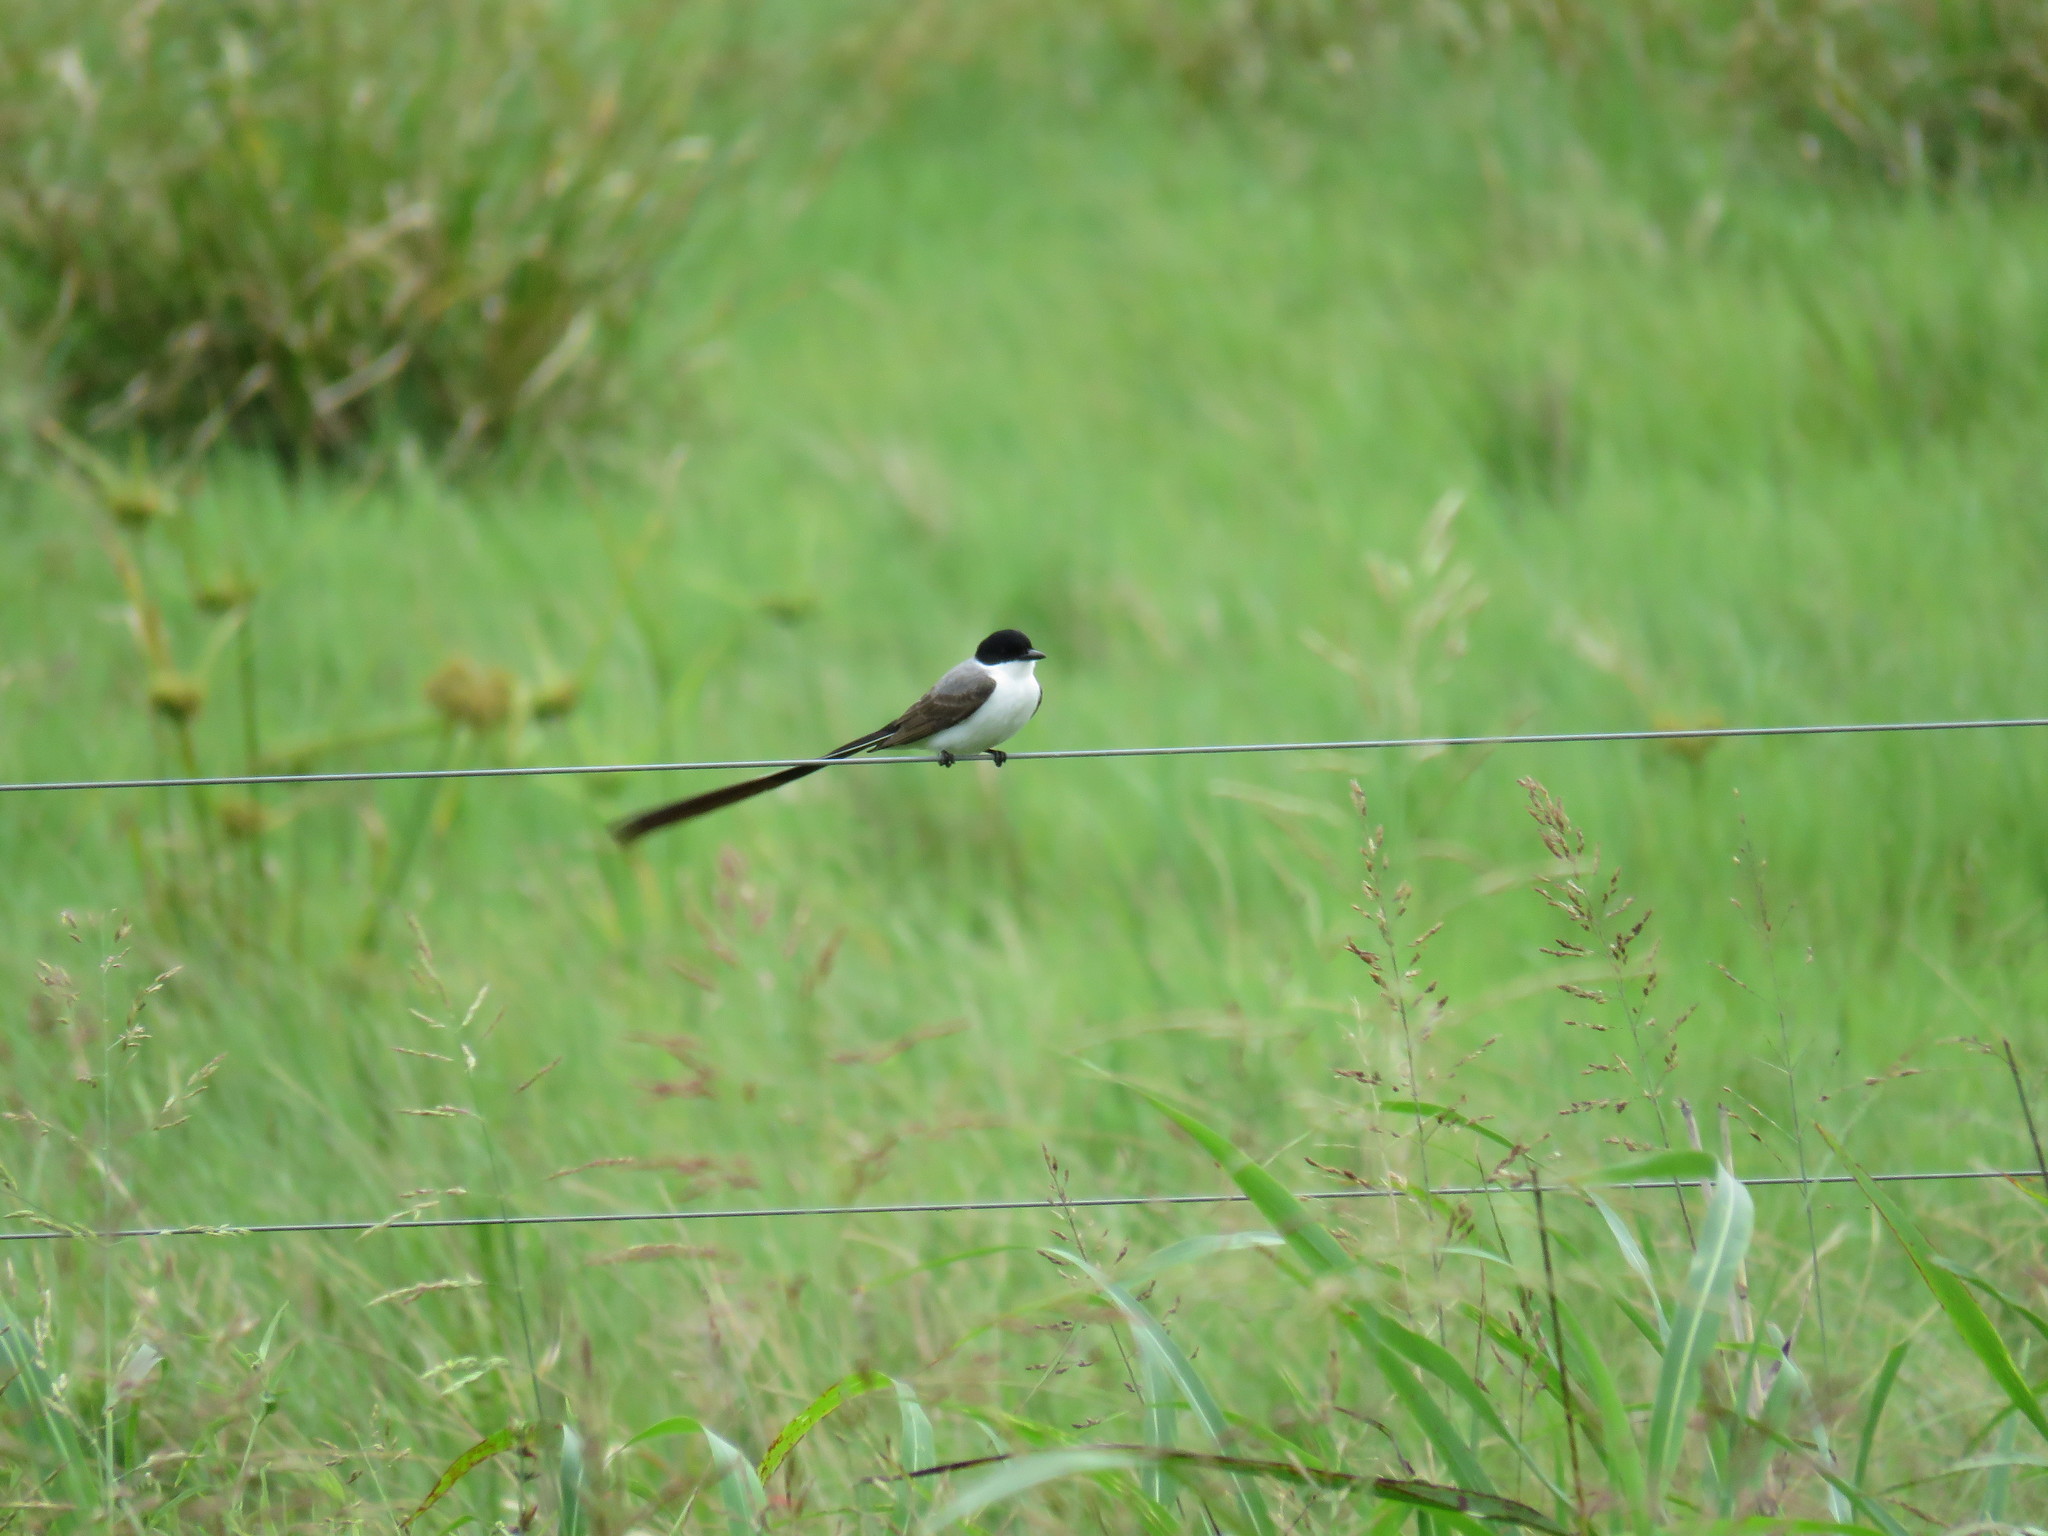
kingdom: Animalia
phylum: Chordata
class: Aves
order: Passeriformes
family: Tyrannidae
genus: Tyrannus
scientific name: Tyrannus savana
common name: Fork-tailed flycatcher
